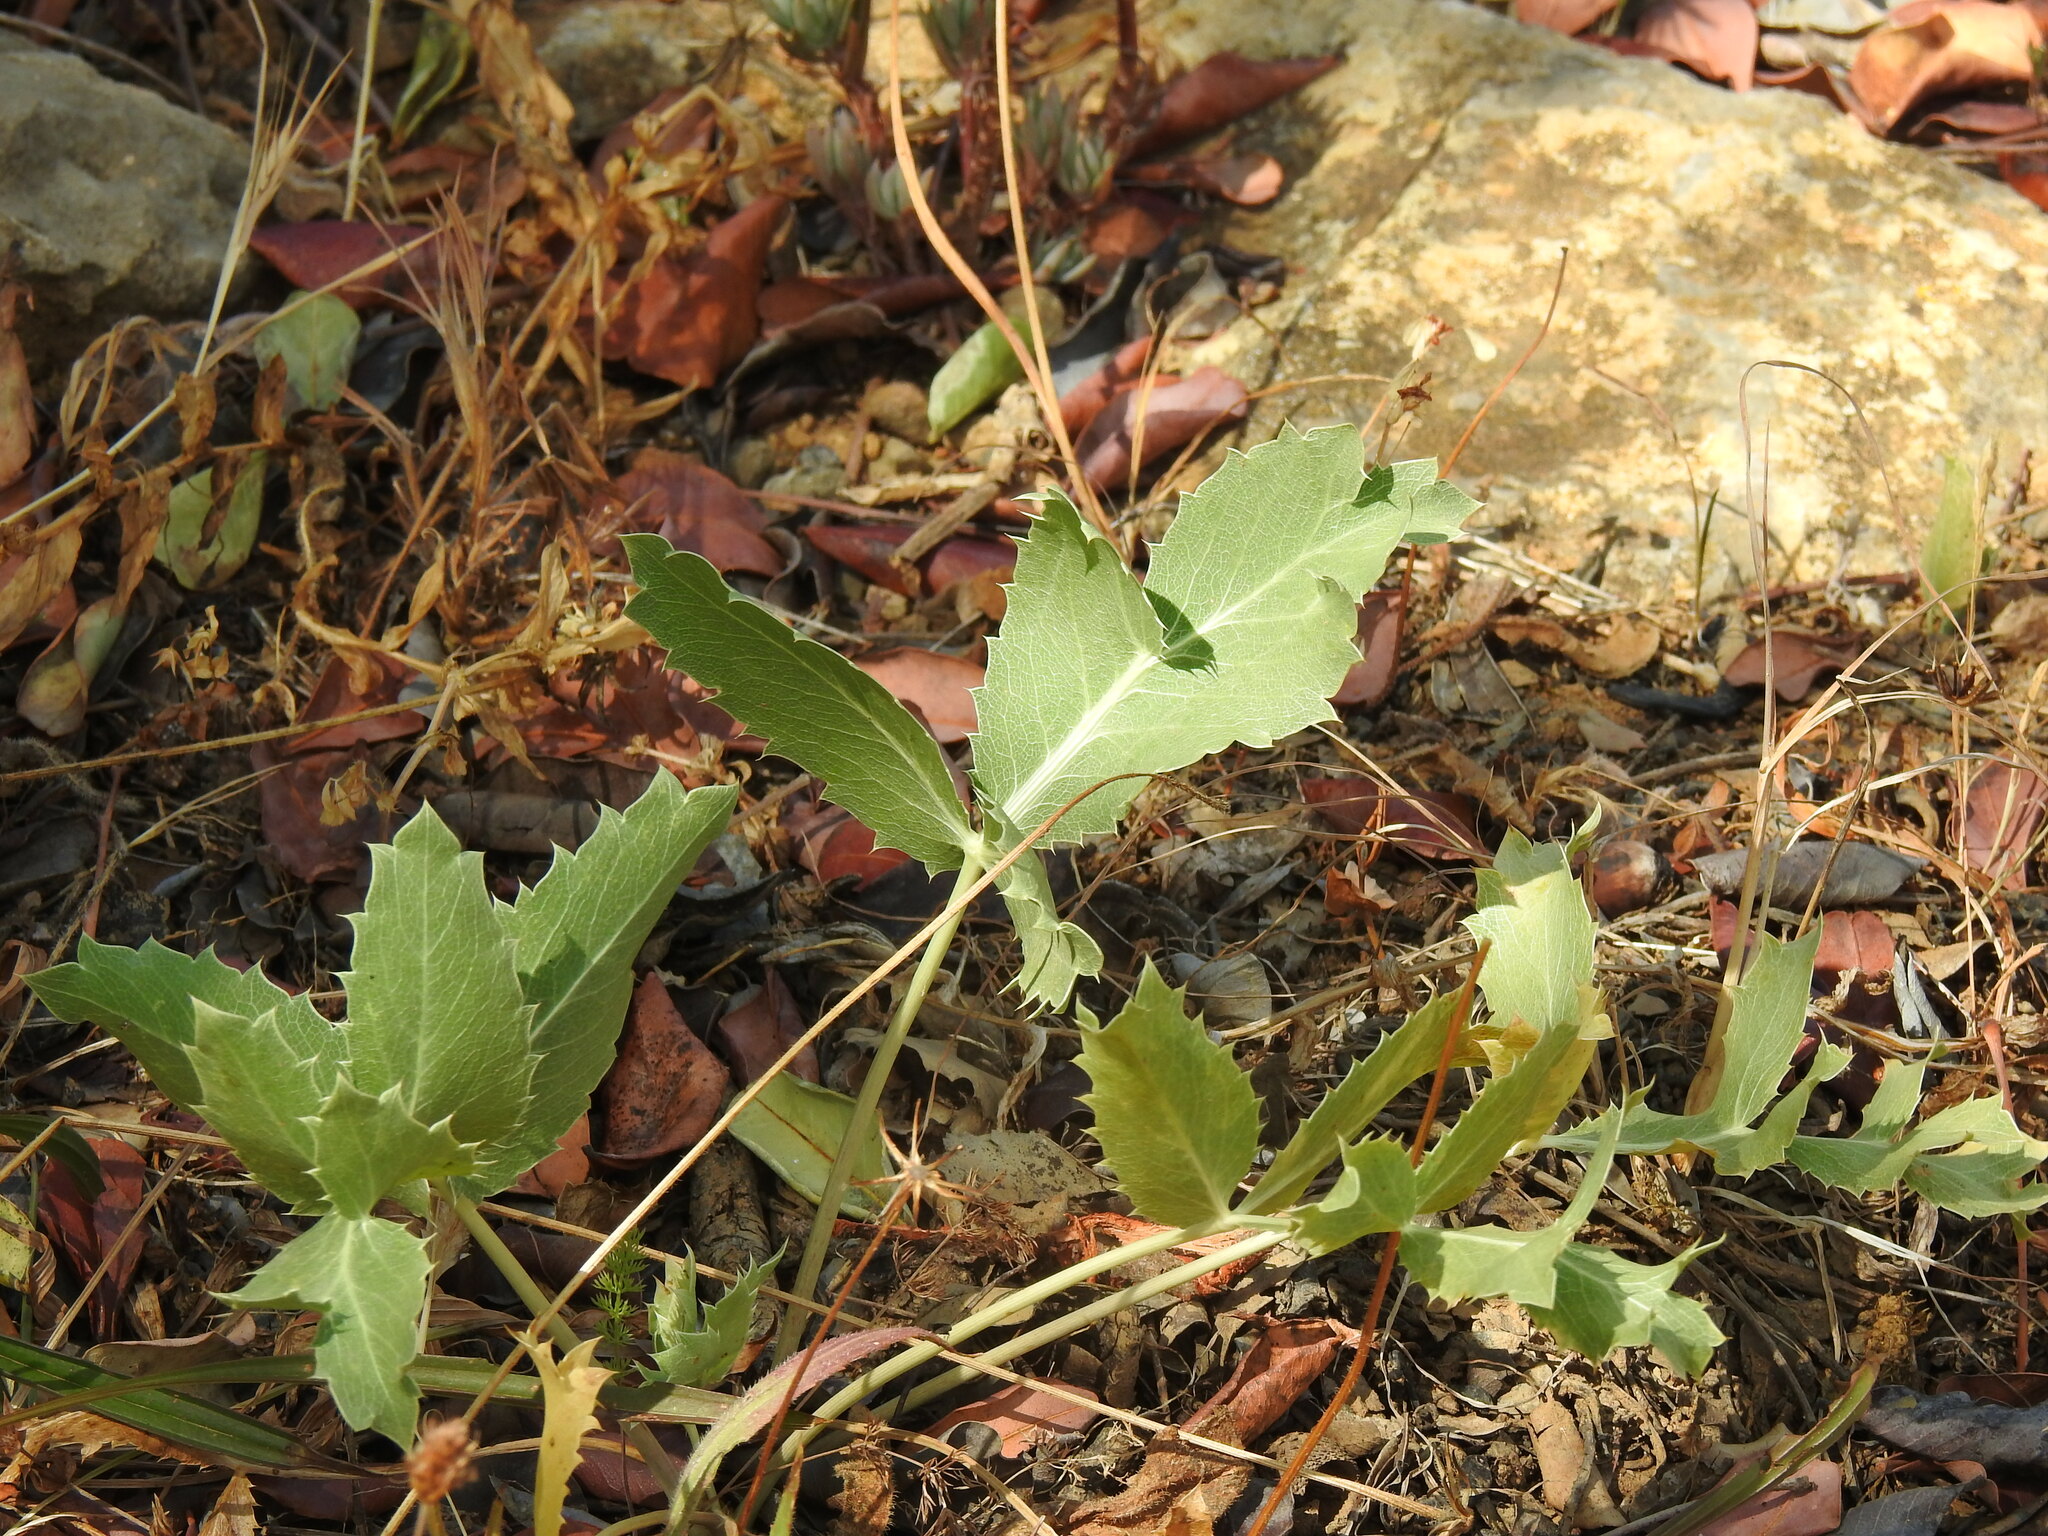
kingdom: Plantae
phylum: Tracheophyta
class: Magnoliopsida
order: Apiales
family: Apiaceae
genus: Eryngium
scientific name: Eryngium campestre
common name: Field eryngo
